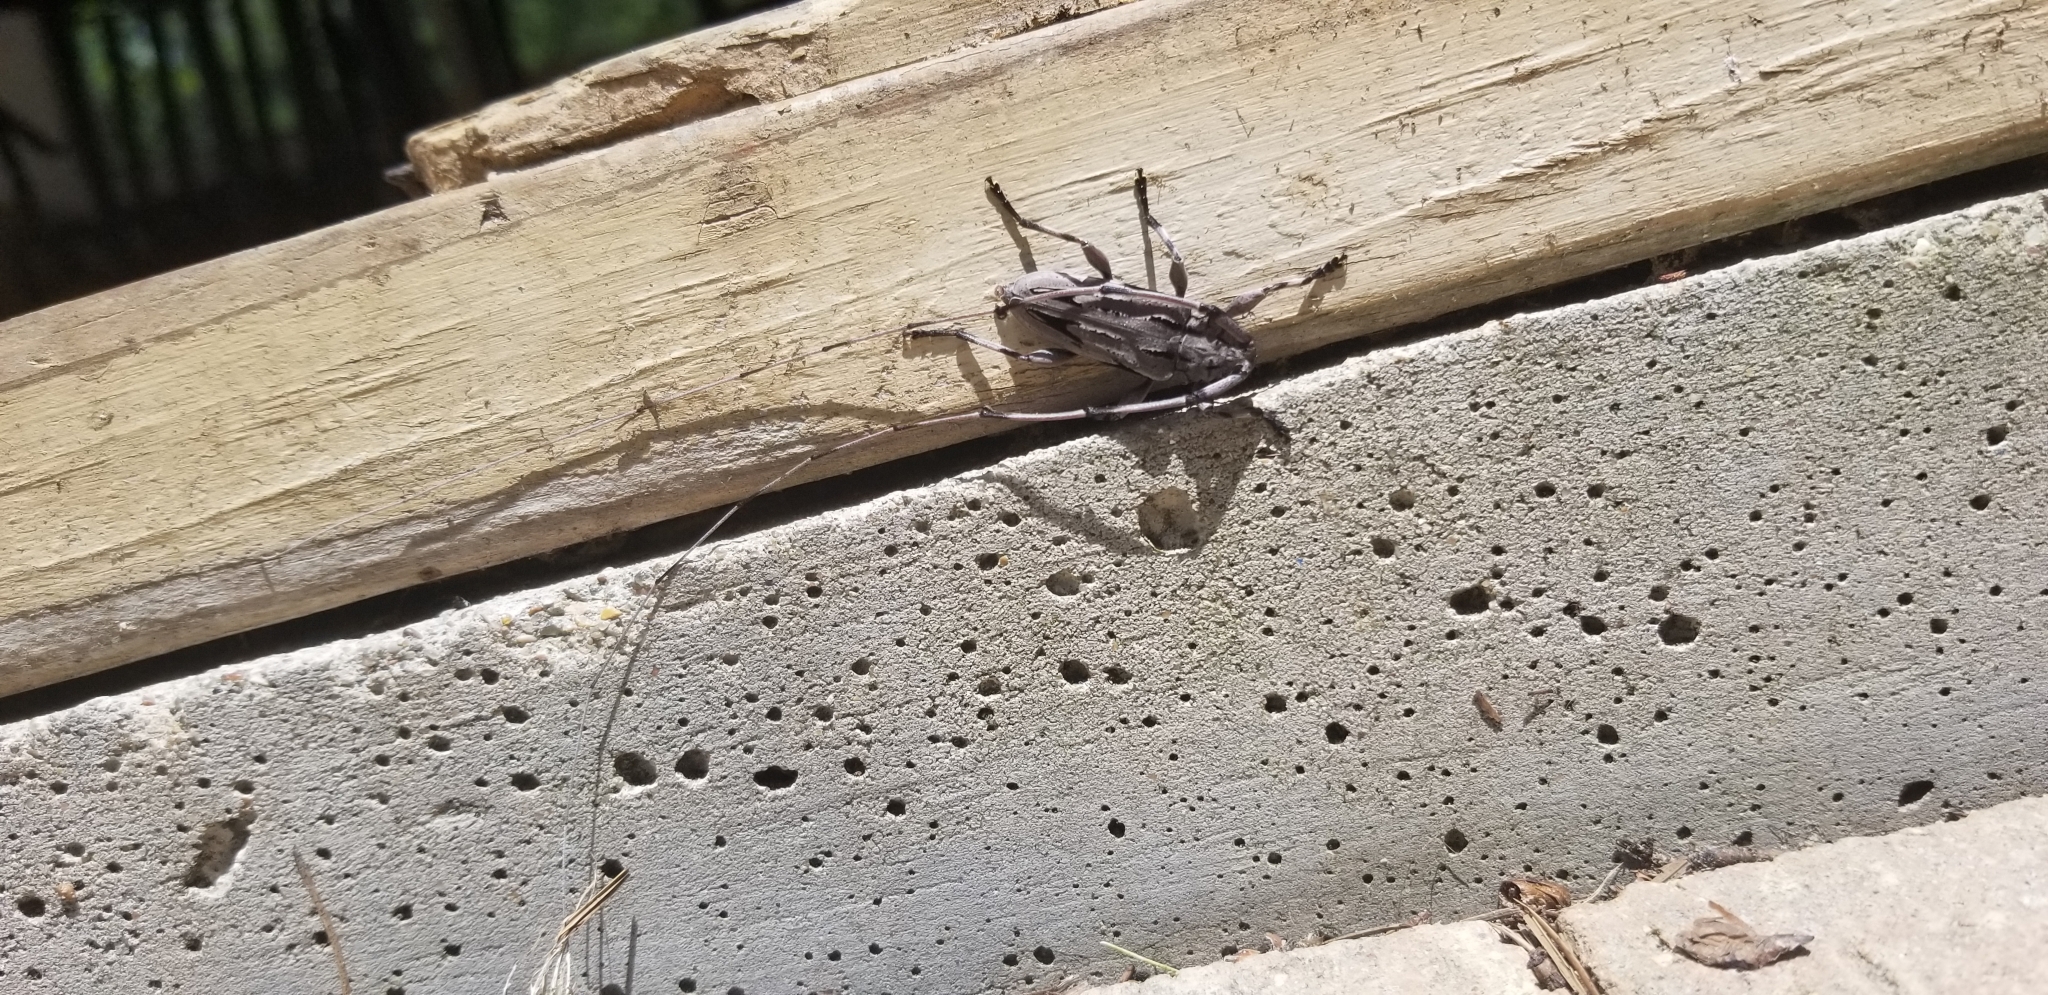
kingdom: Animalia
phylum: Arthropoda
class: Insecta
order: Coleoptera
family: Cerambycidae
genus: Acanthocinus
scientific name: Acanthocinus nodosus
